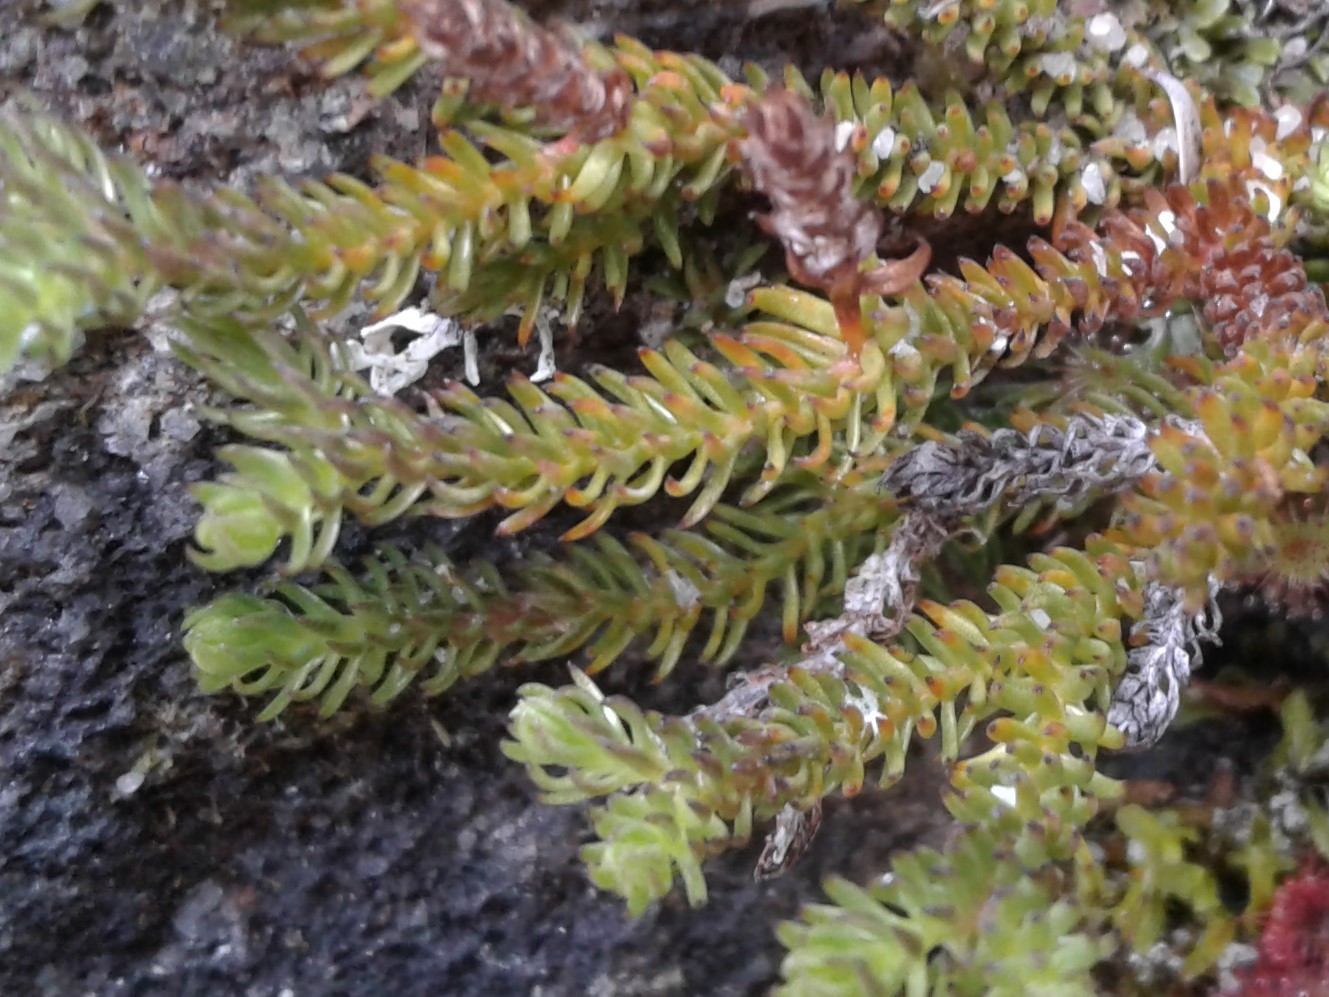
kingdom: Plantae
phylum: Tracheophyta
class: Lycopodiopsida
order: Lycopodiales
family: Lycopodiaceae
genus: Lateristachys
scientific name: Lateristachys lateralis
